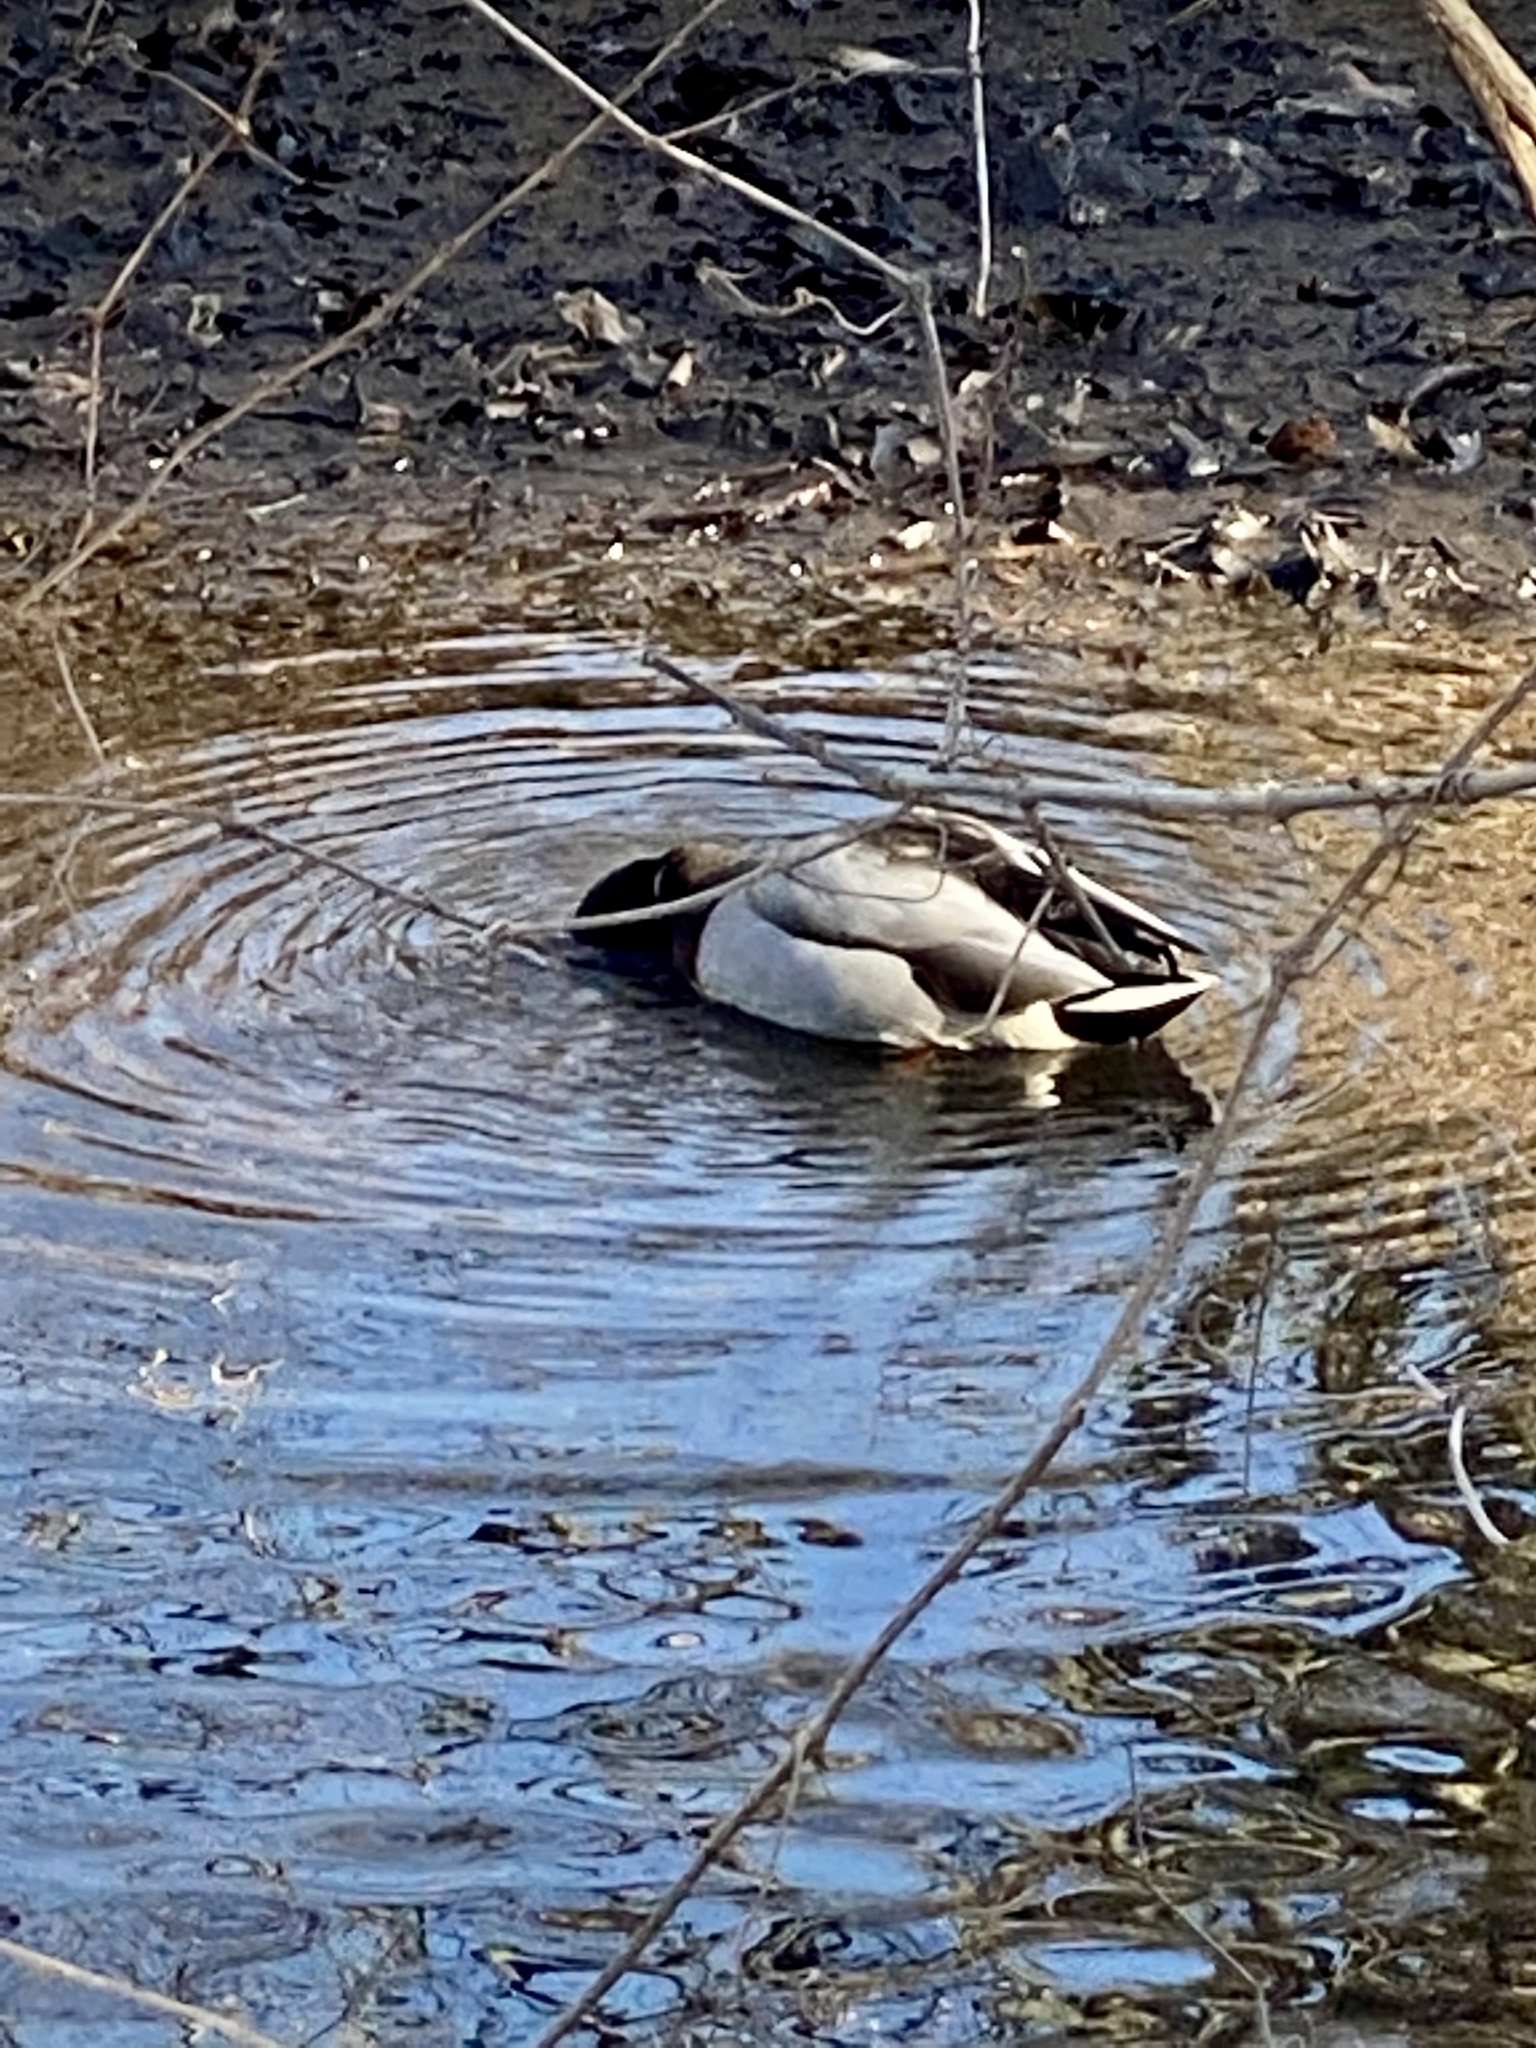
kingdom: Animalia
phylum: Chordata
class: Aves
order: Anseriformes
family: Anatidae
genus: Anas
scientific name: Anas platyrhynchos
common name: Mallard
